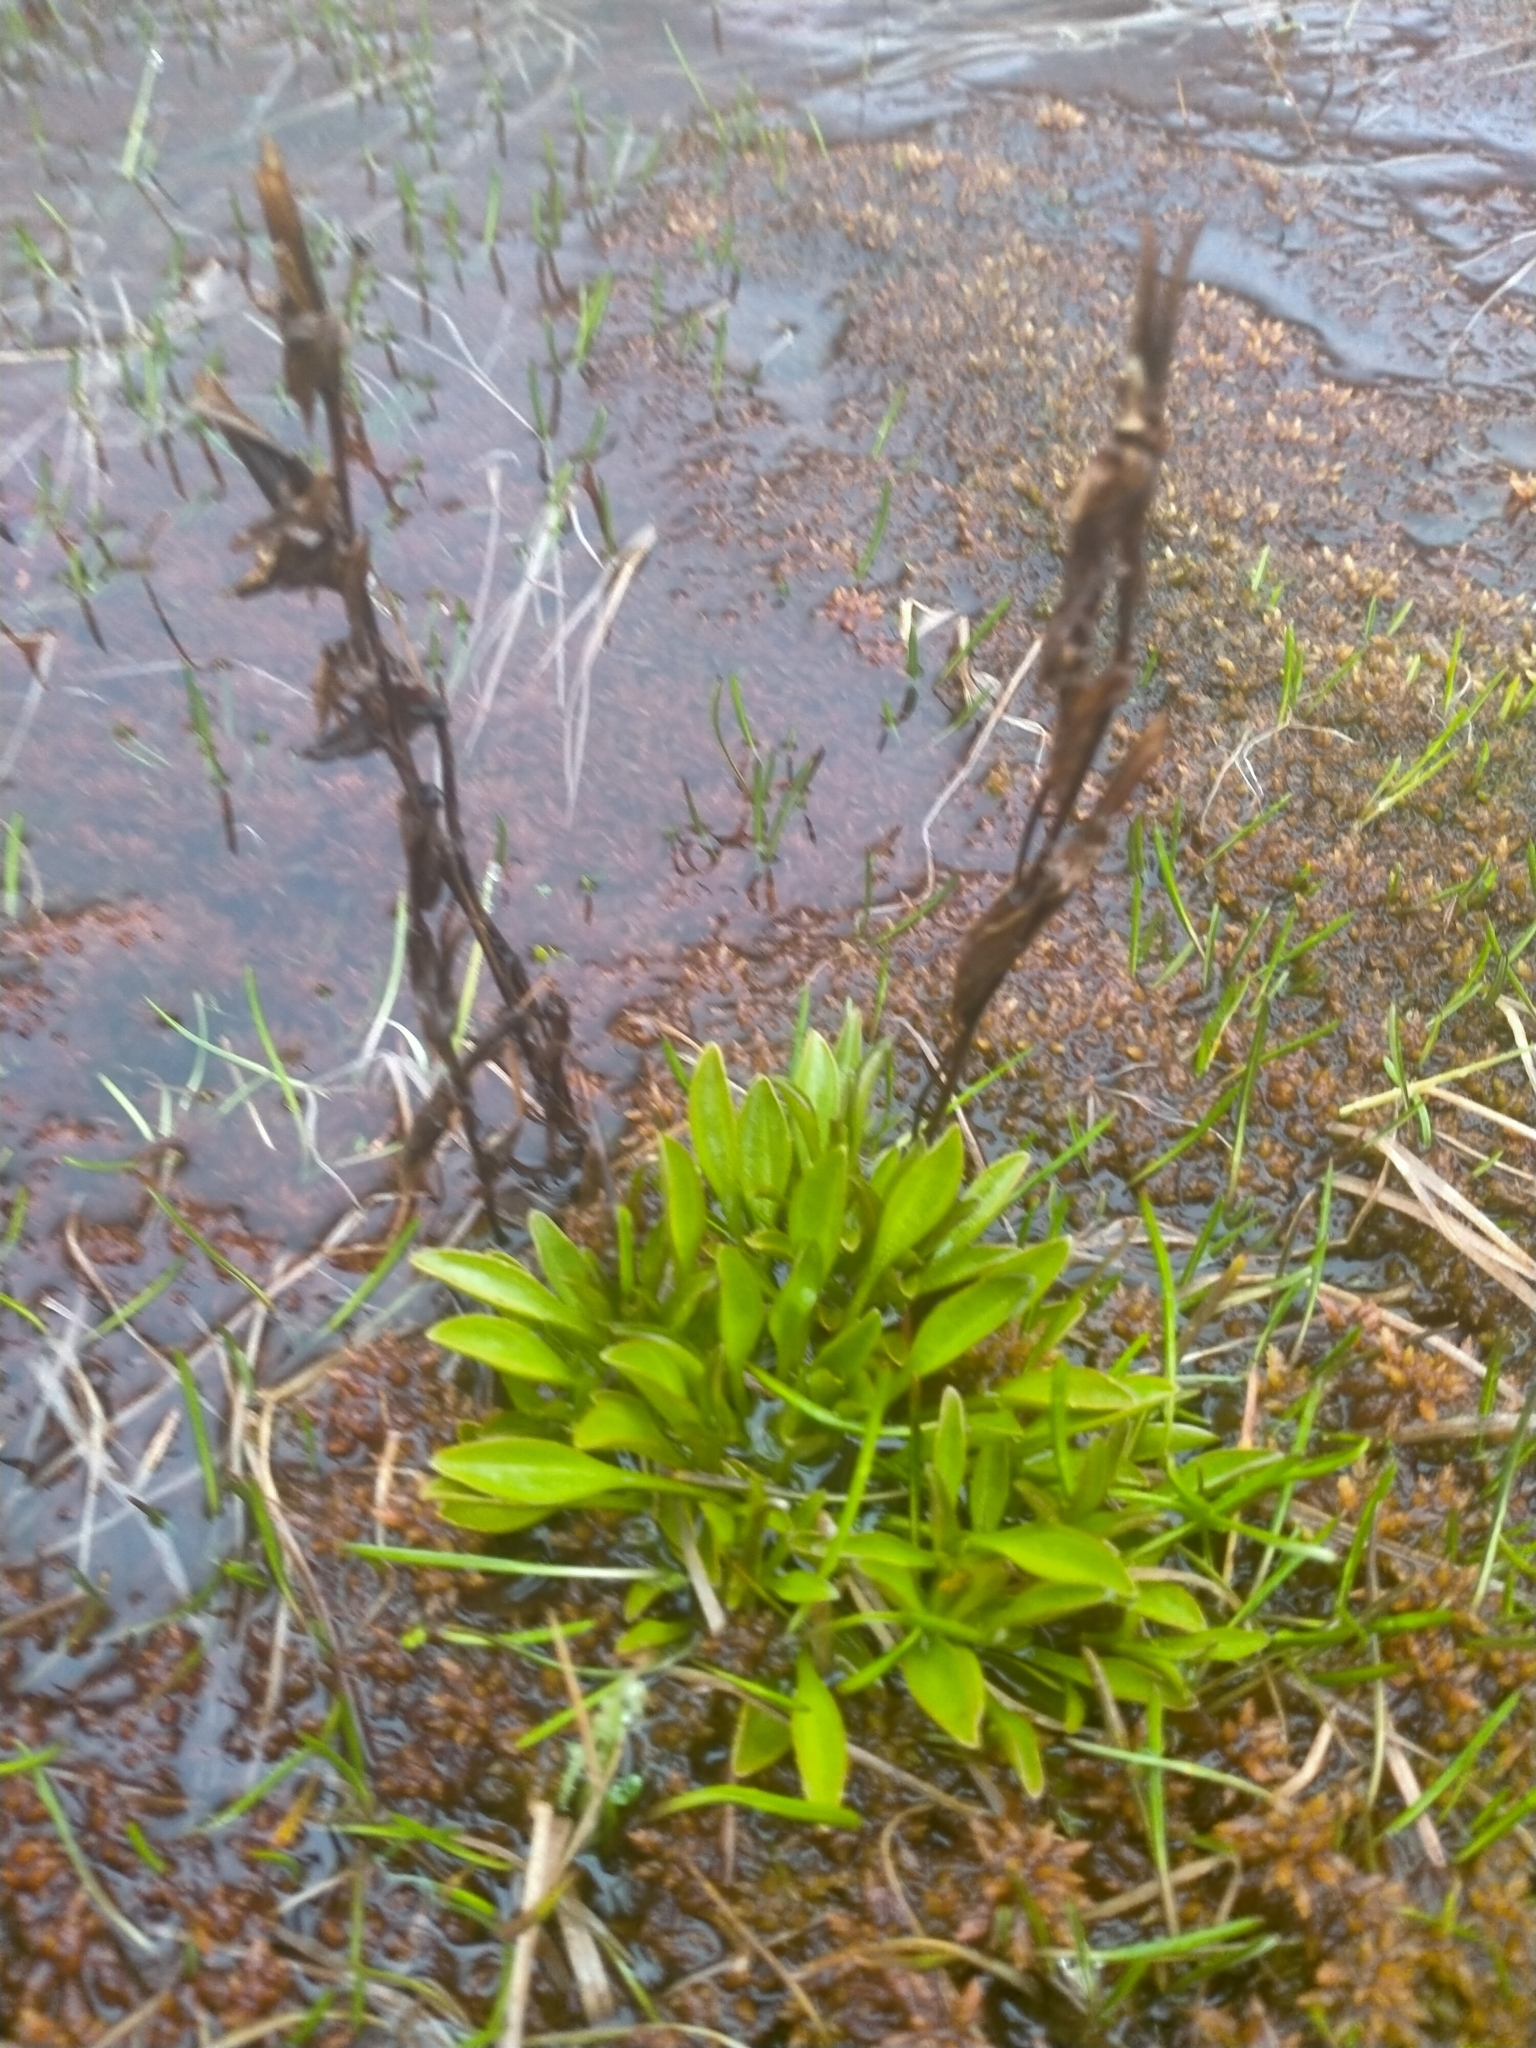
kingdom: Plantae
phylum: Tracheophyta
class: Magnoliopsida
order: Gentianales
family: Gentianaceae
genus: Gentianella
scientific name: Gentianella bellidifolia
